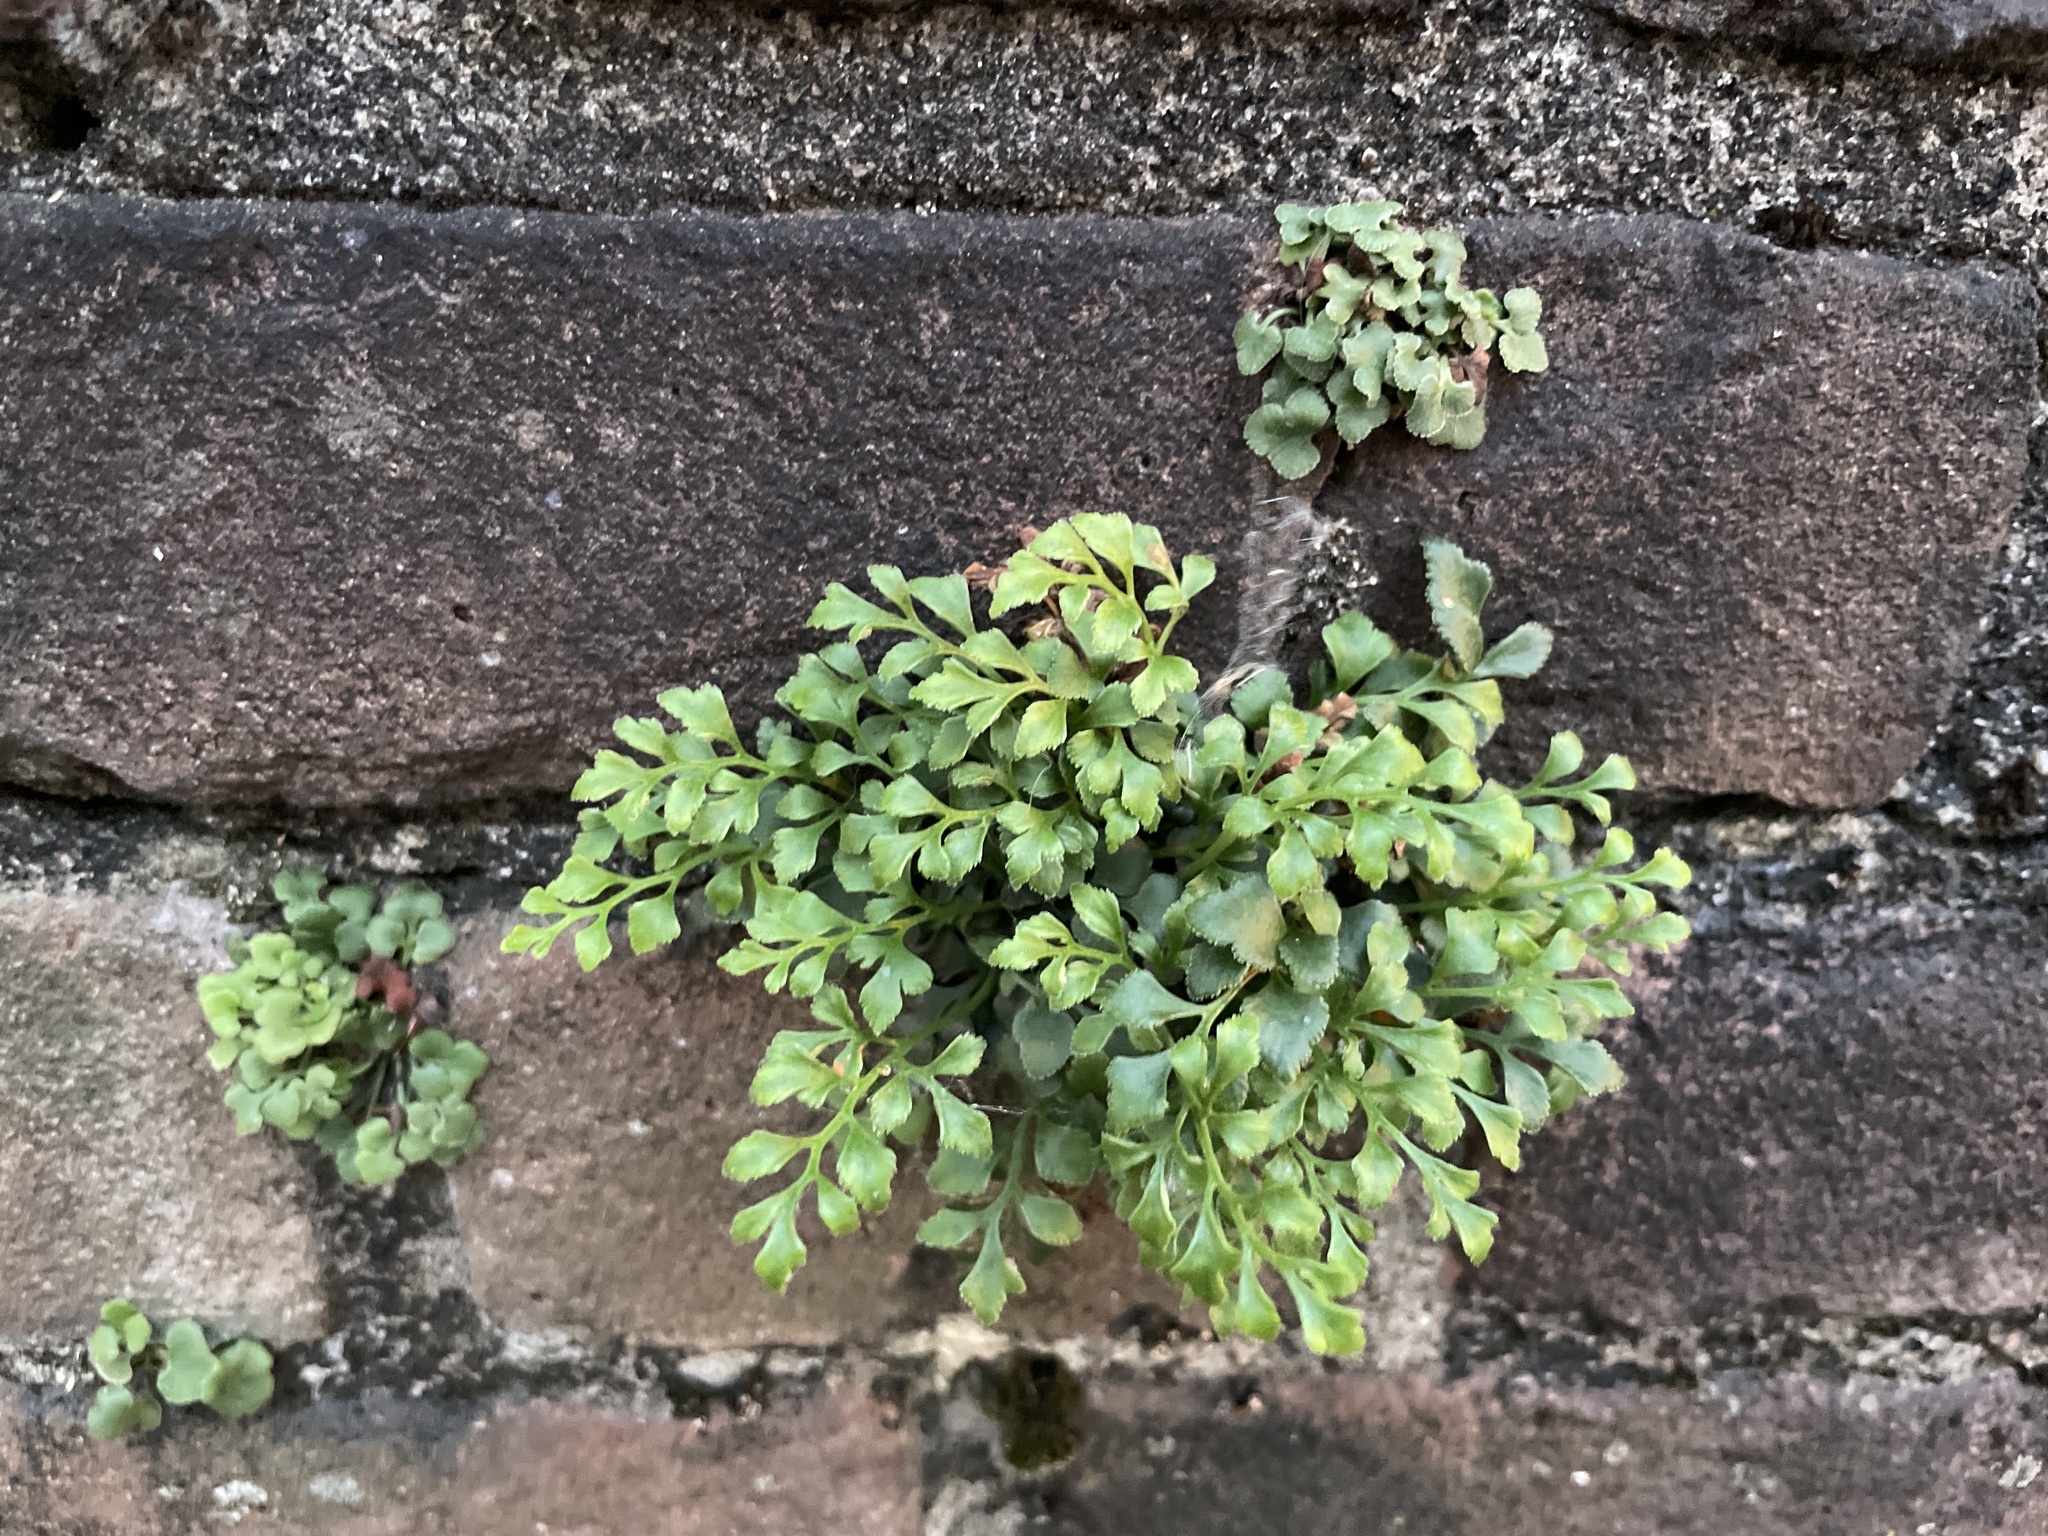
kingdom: Plantae
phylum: Tracheophyta
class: Polypodiopsida
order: Polypodiales
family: Aspleniaceae
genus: Asplenium
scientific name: Asplenium ruta-muraria
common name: Wall-rue
